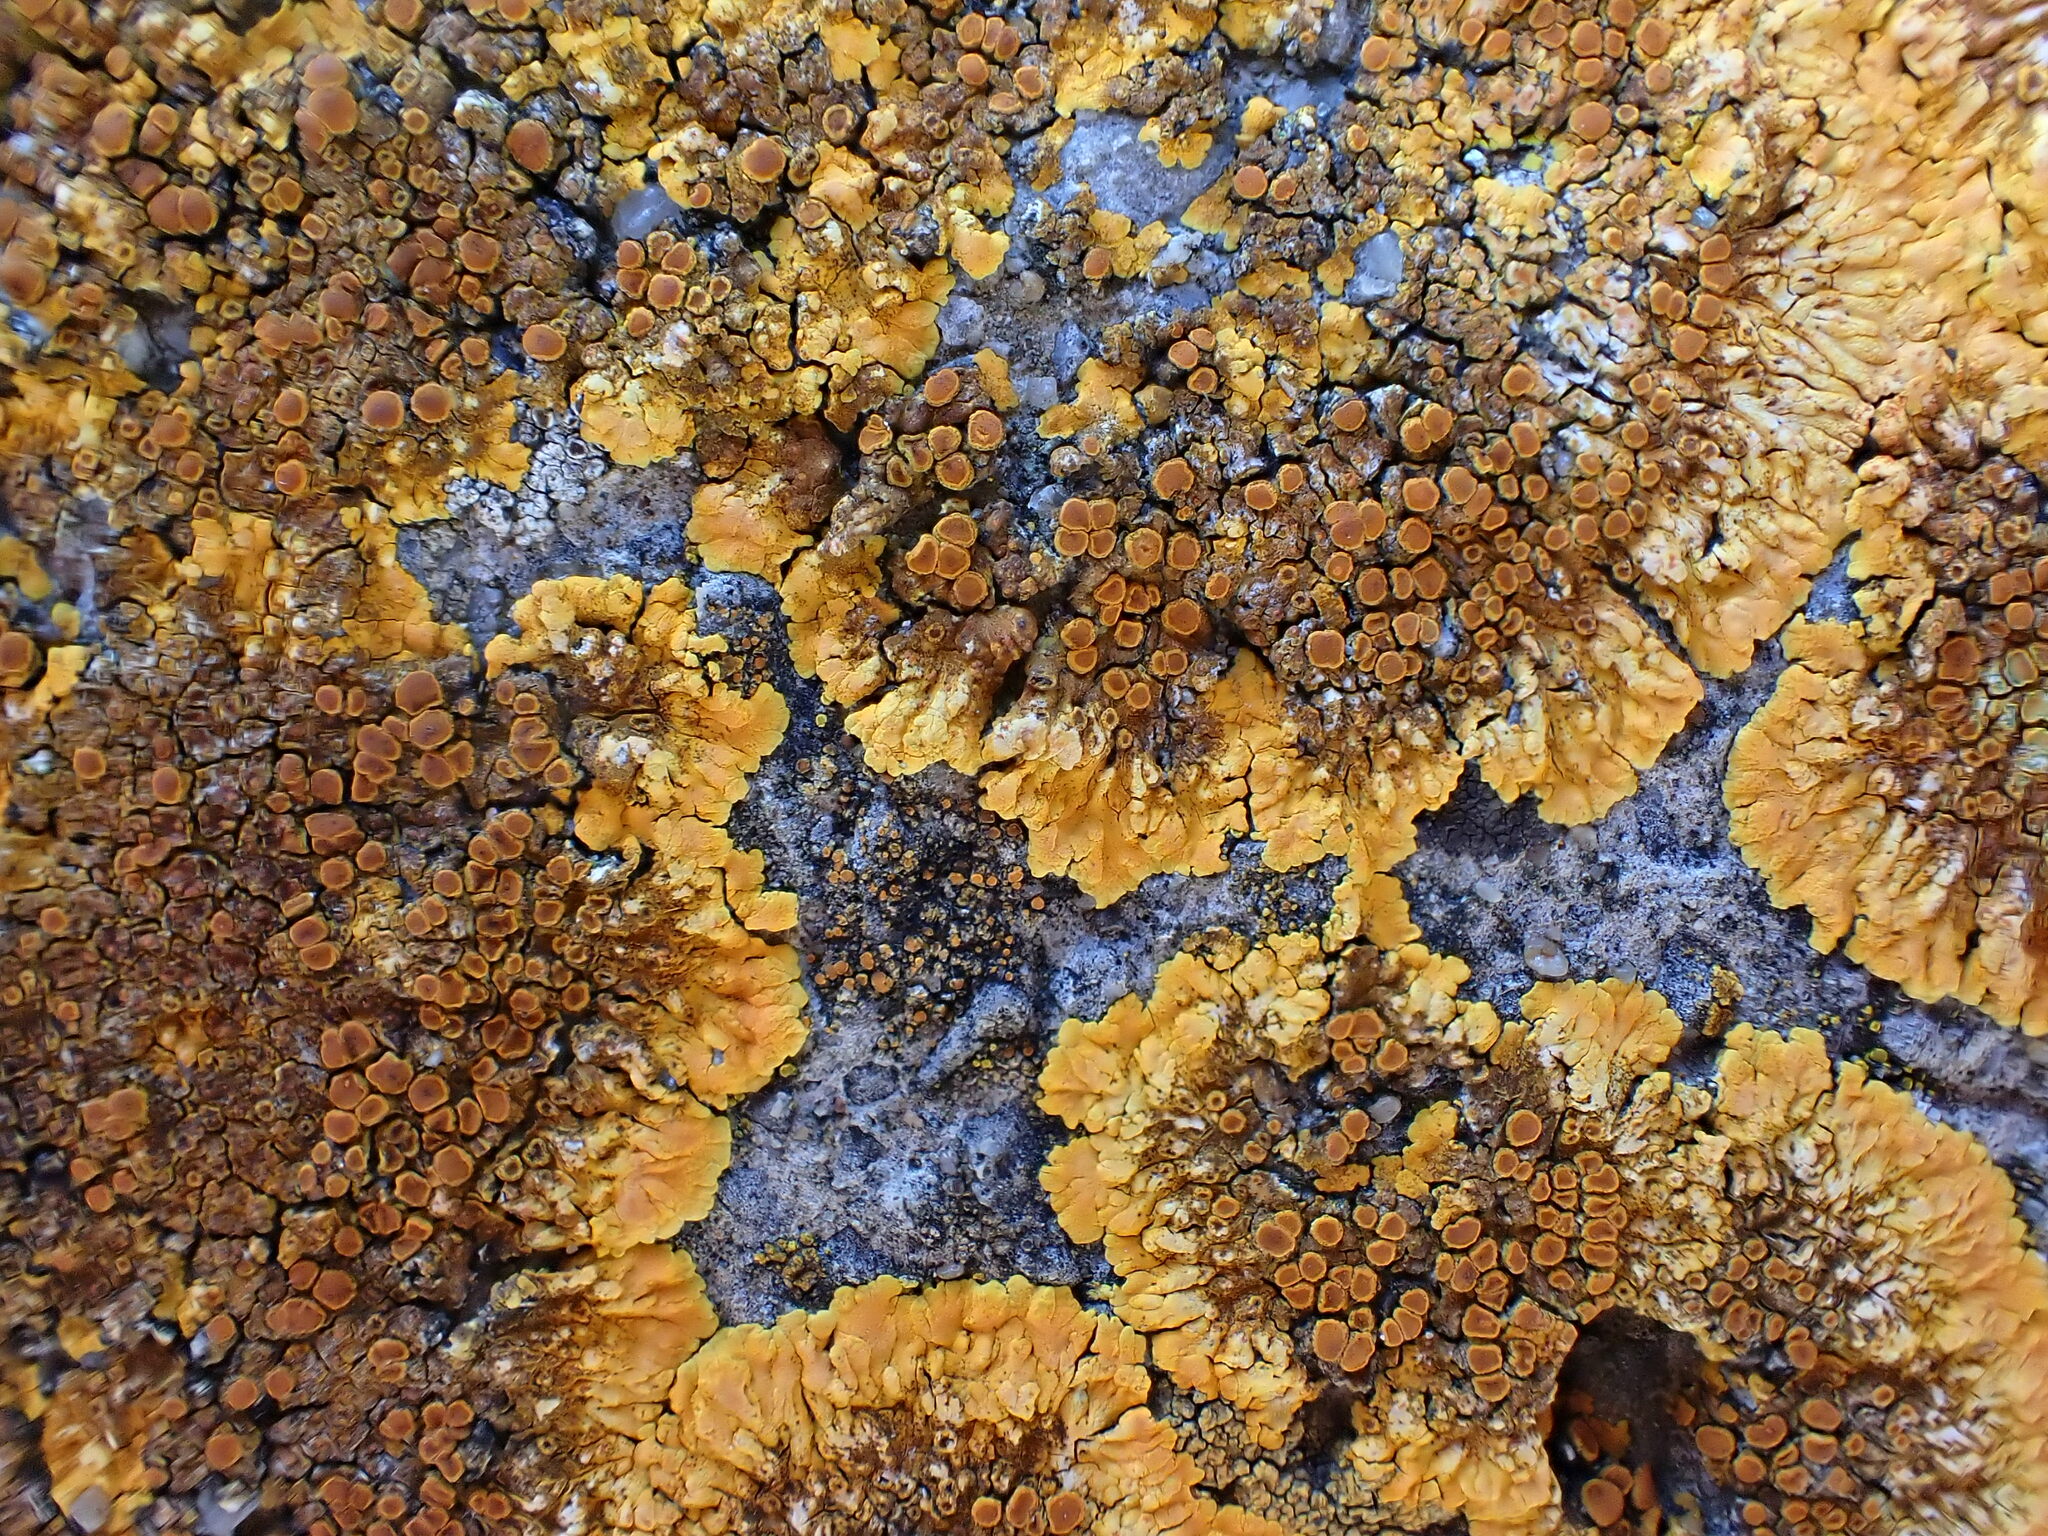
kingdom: Fungi
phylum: Ascomycota
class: Lecanoromycetes
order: Teloschistales
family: Teloschistaceae
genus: Variospora
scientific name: Variospora aurantia
